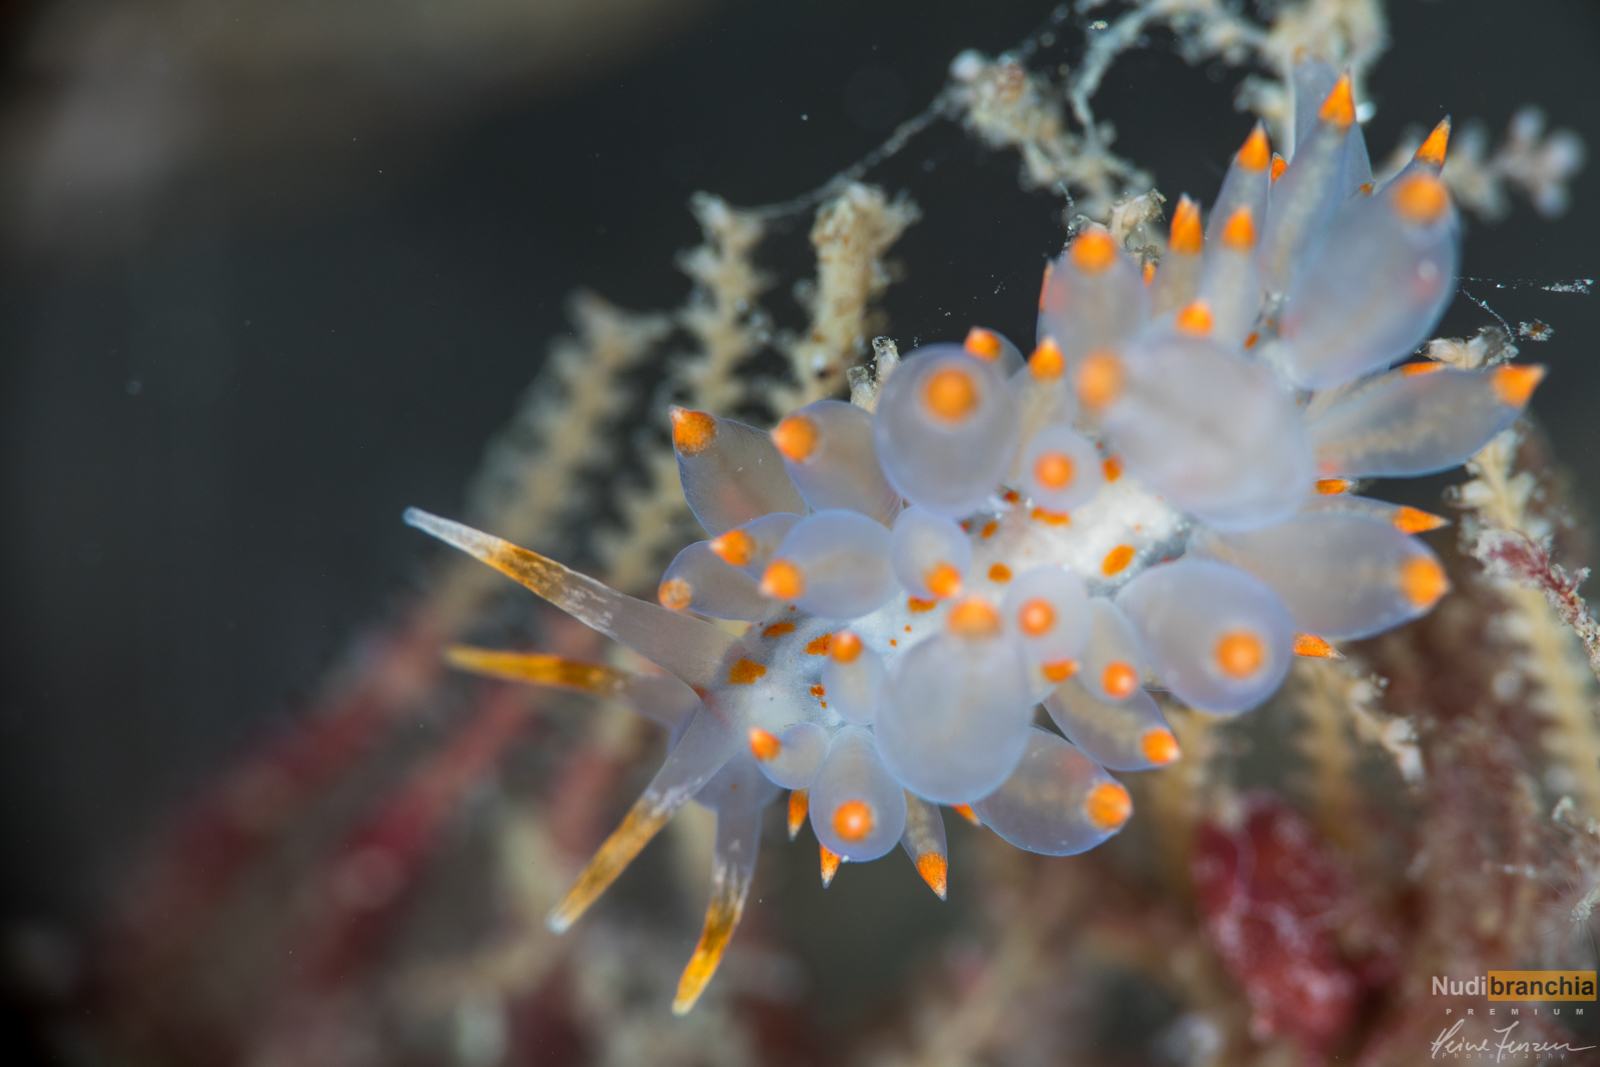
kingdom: Animalia
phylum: Mollusca
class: Gastropoda
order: Nudibranchia
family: Eubranchidae
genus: Amphorina
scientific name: Amphorina andra
